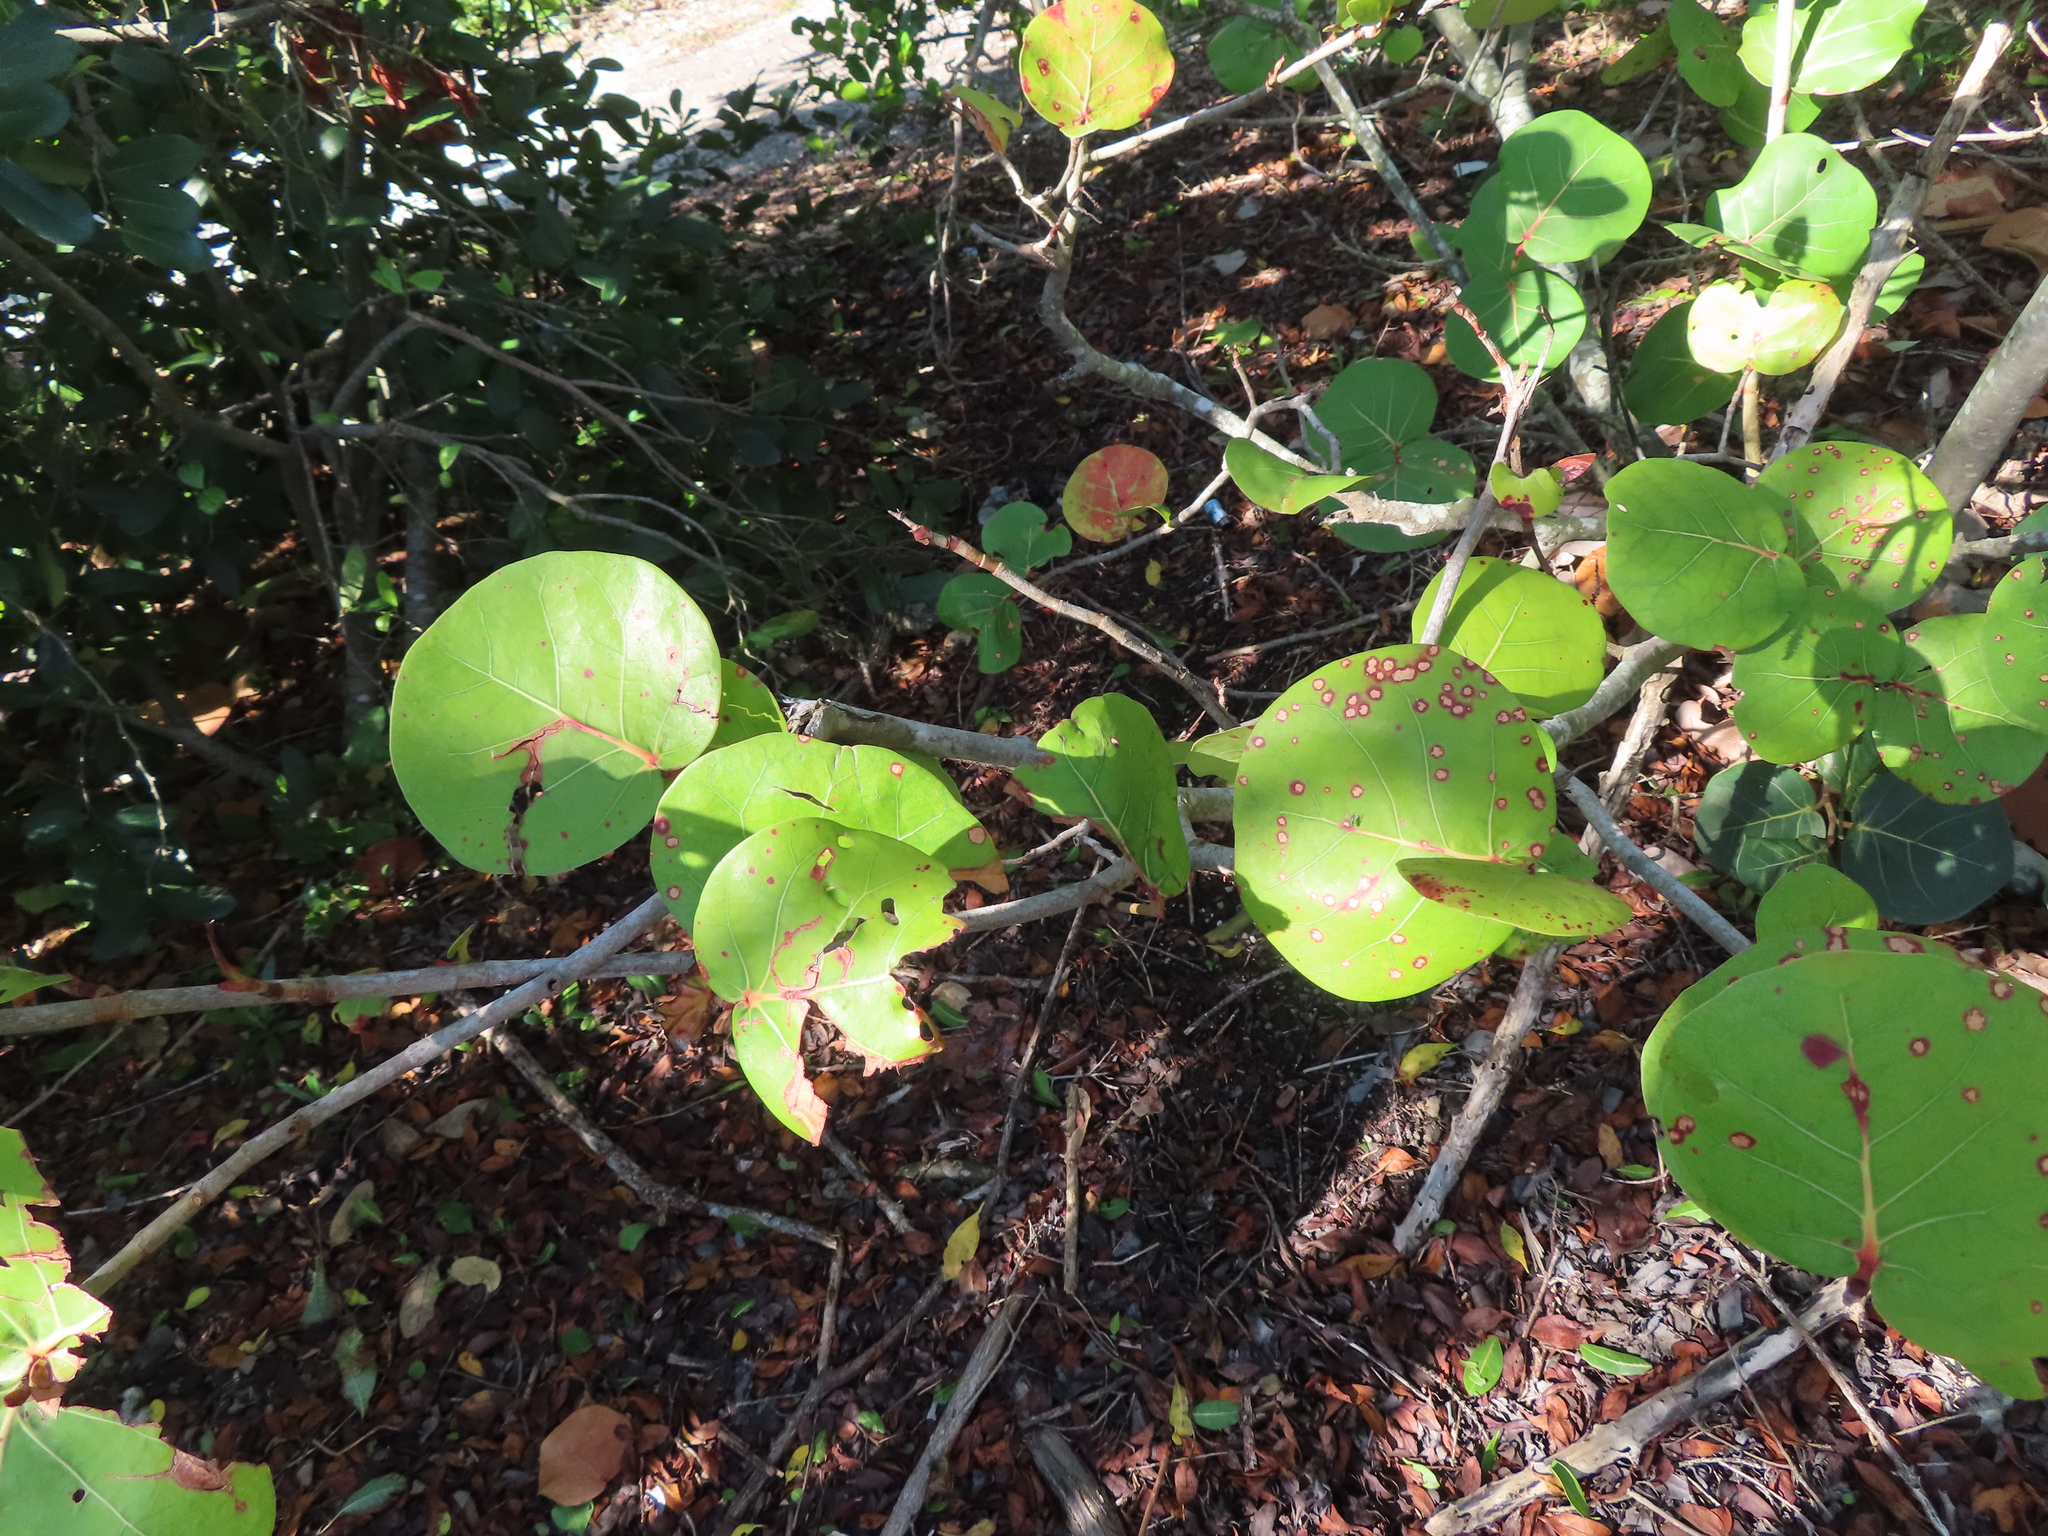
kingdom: Plantae
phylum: Tracheophyta
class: Magnoliopsida
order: Caryophyllales
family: Polygonaceae
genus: Coccoloba
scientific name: Coccoloba uvifera
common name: Seagrape
